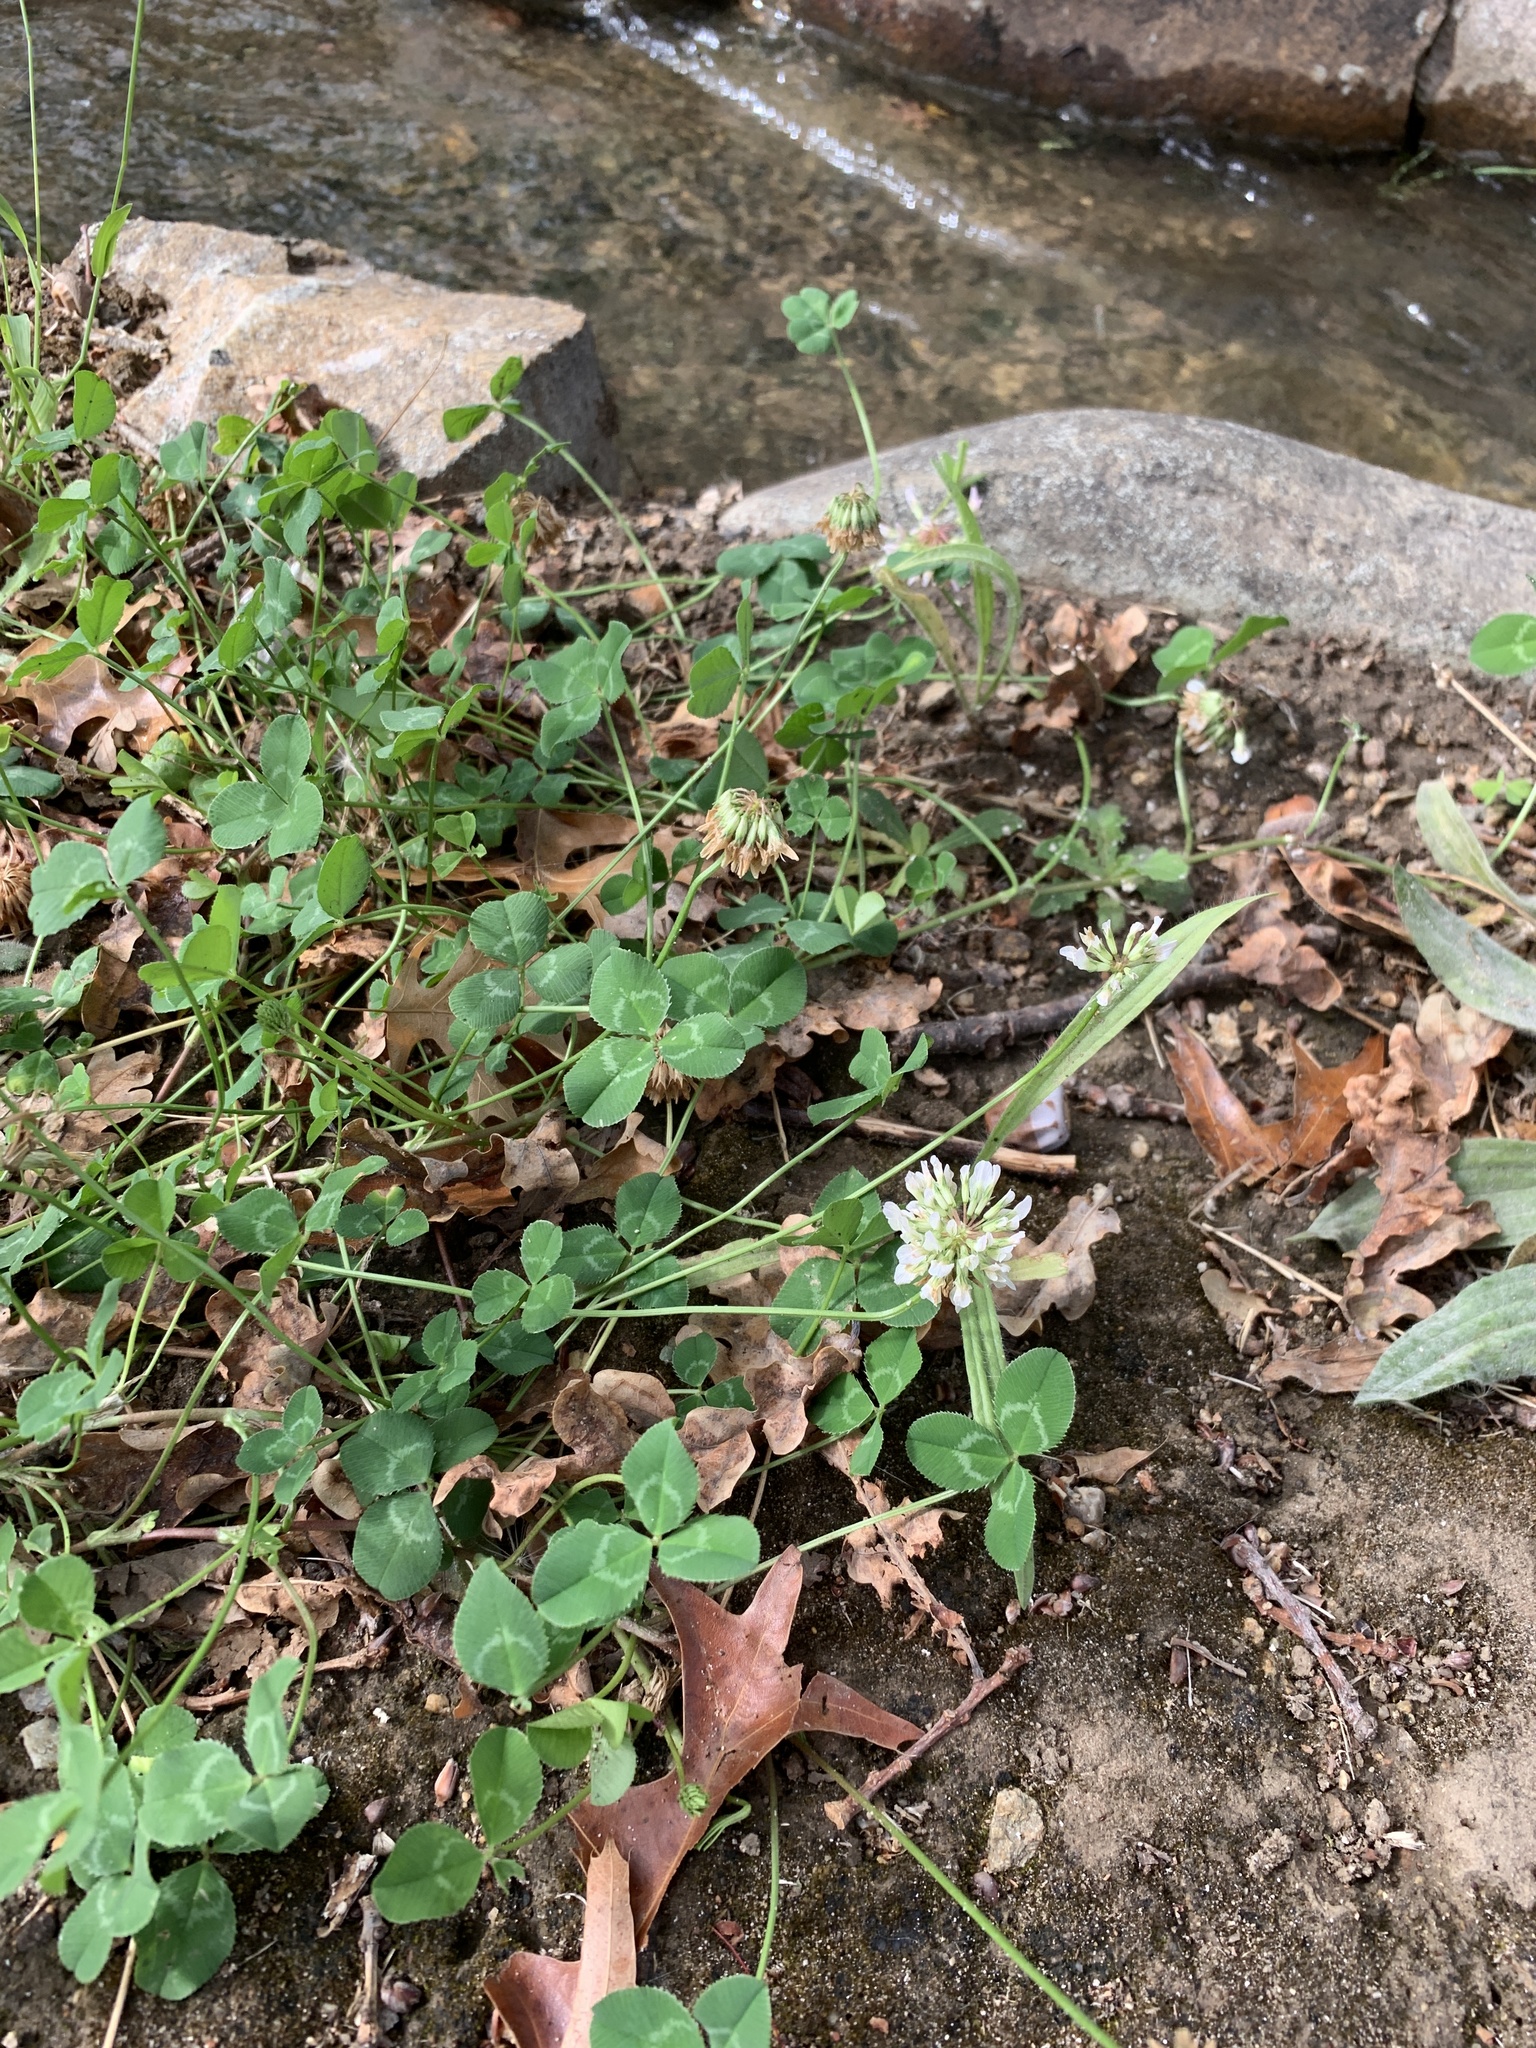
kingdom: Plantae
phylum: Tracheophyta
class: Magnoliopsida
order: Fabales
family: Fabaceae
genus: Trifolium
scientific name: Trifolium repens
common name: White clover
